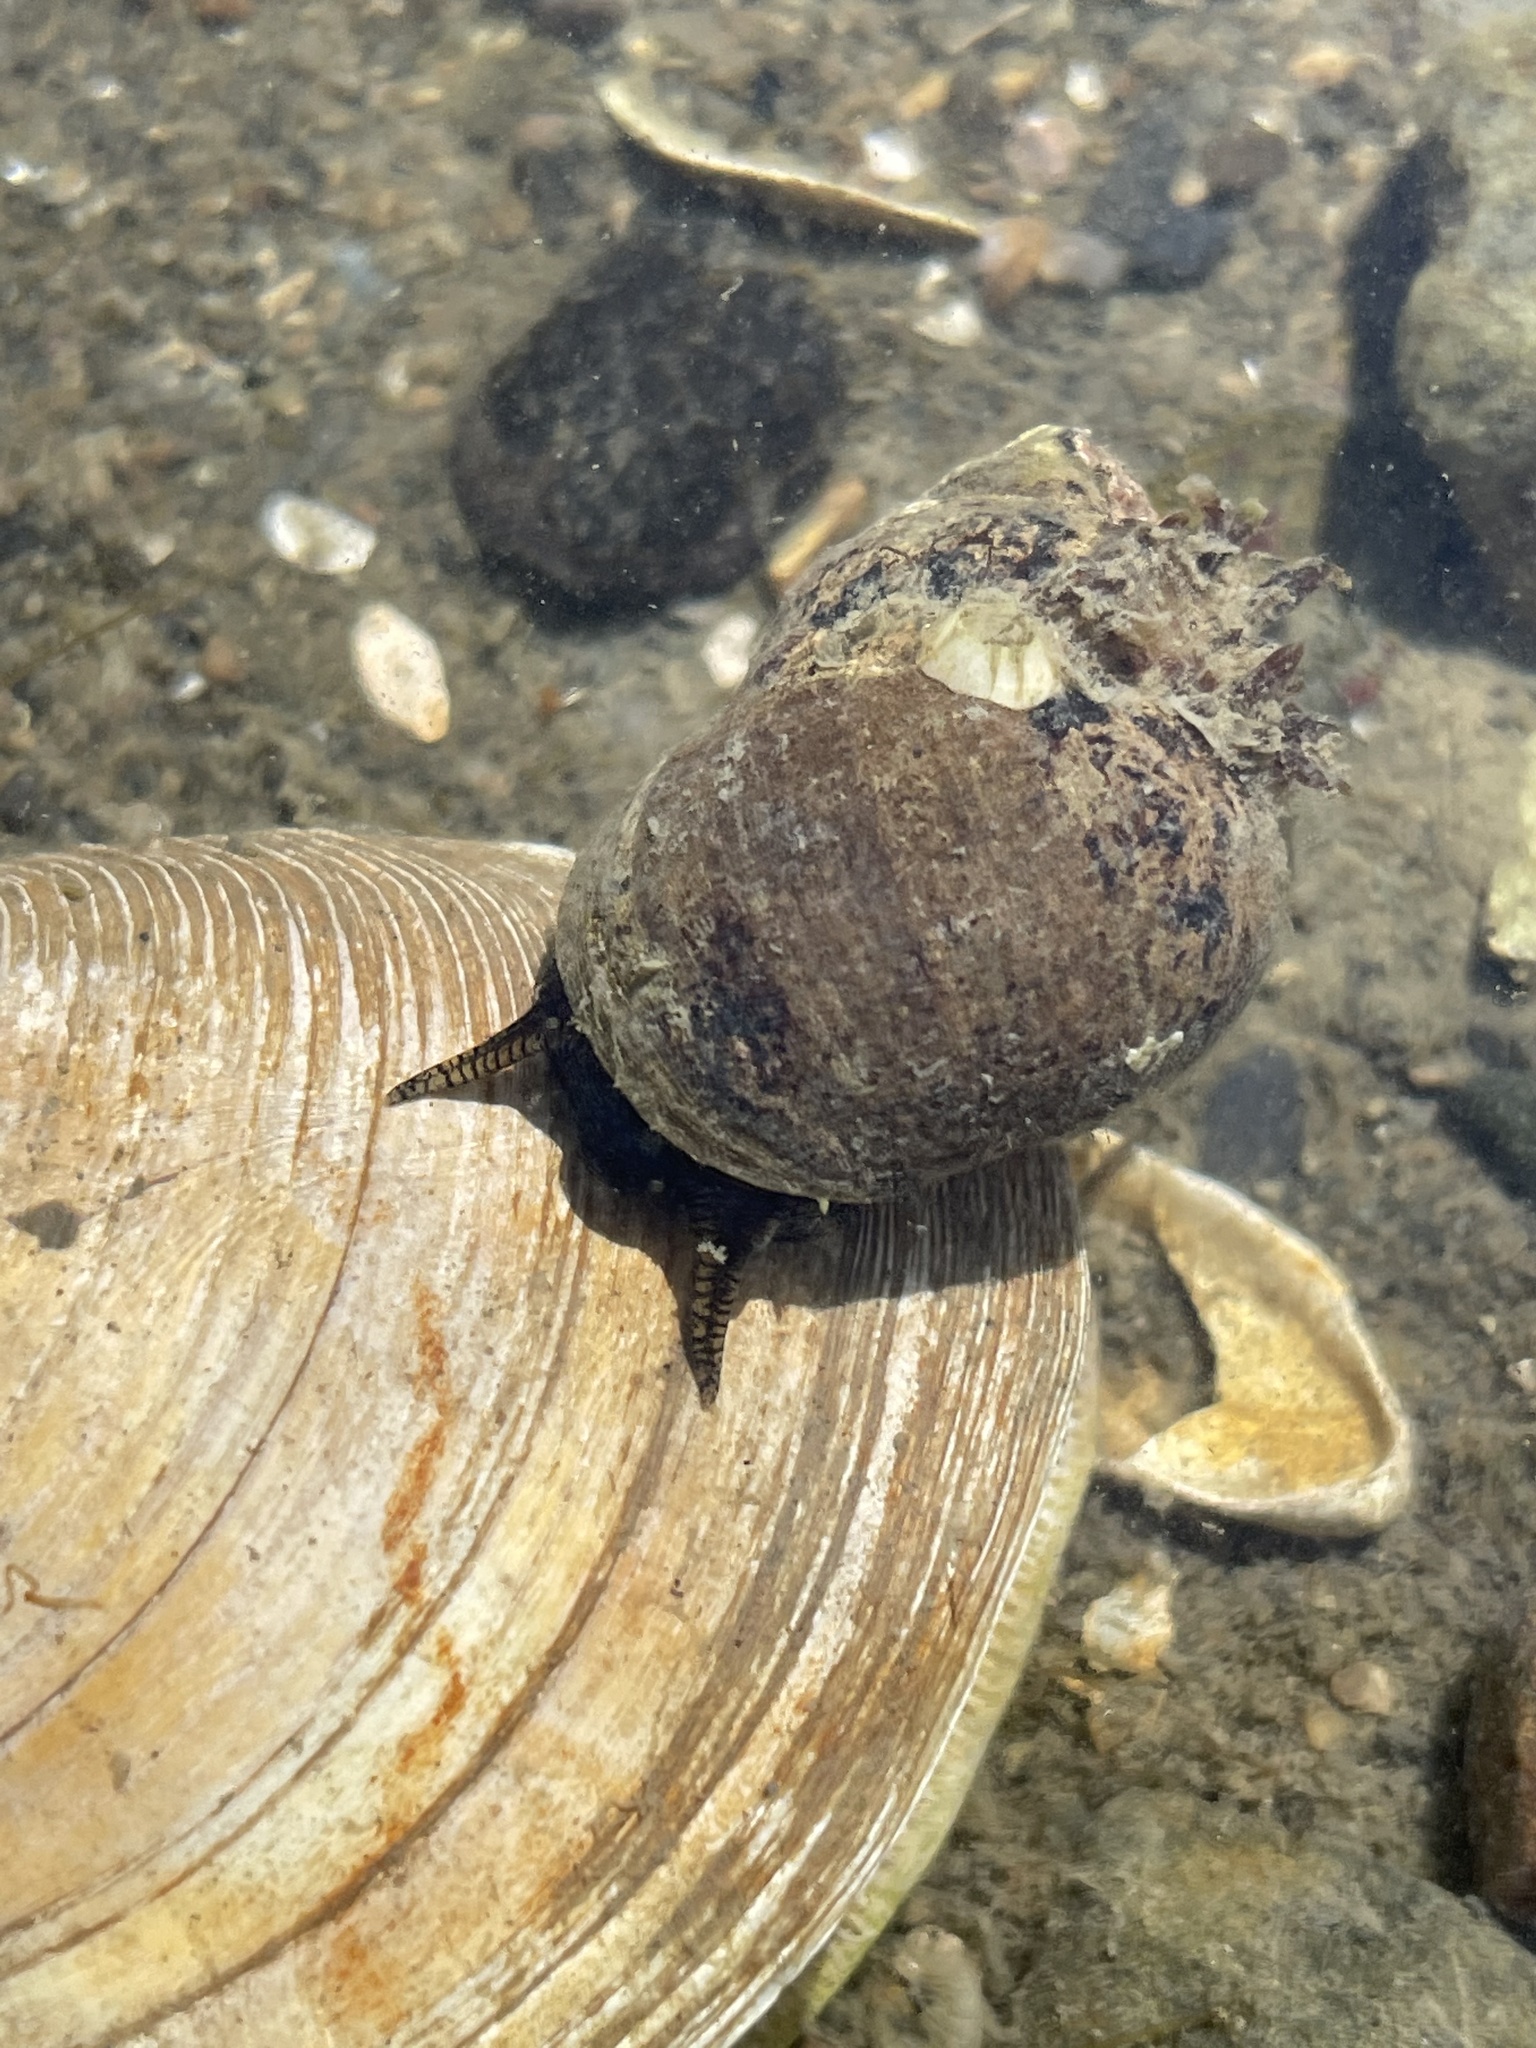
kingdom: Animalia
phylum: Mollusca
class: Gastropoda
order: Littorinimorpha
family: Littorinidae
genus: Littorina
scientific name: Littorina littorea
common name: Common periwinkle
